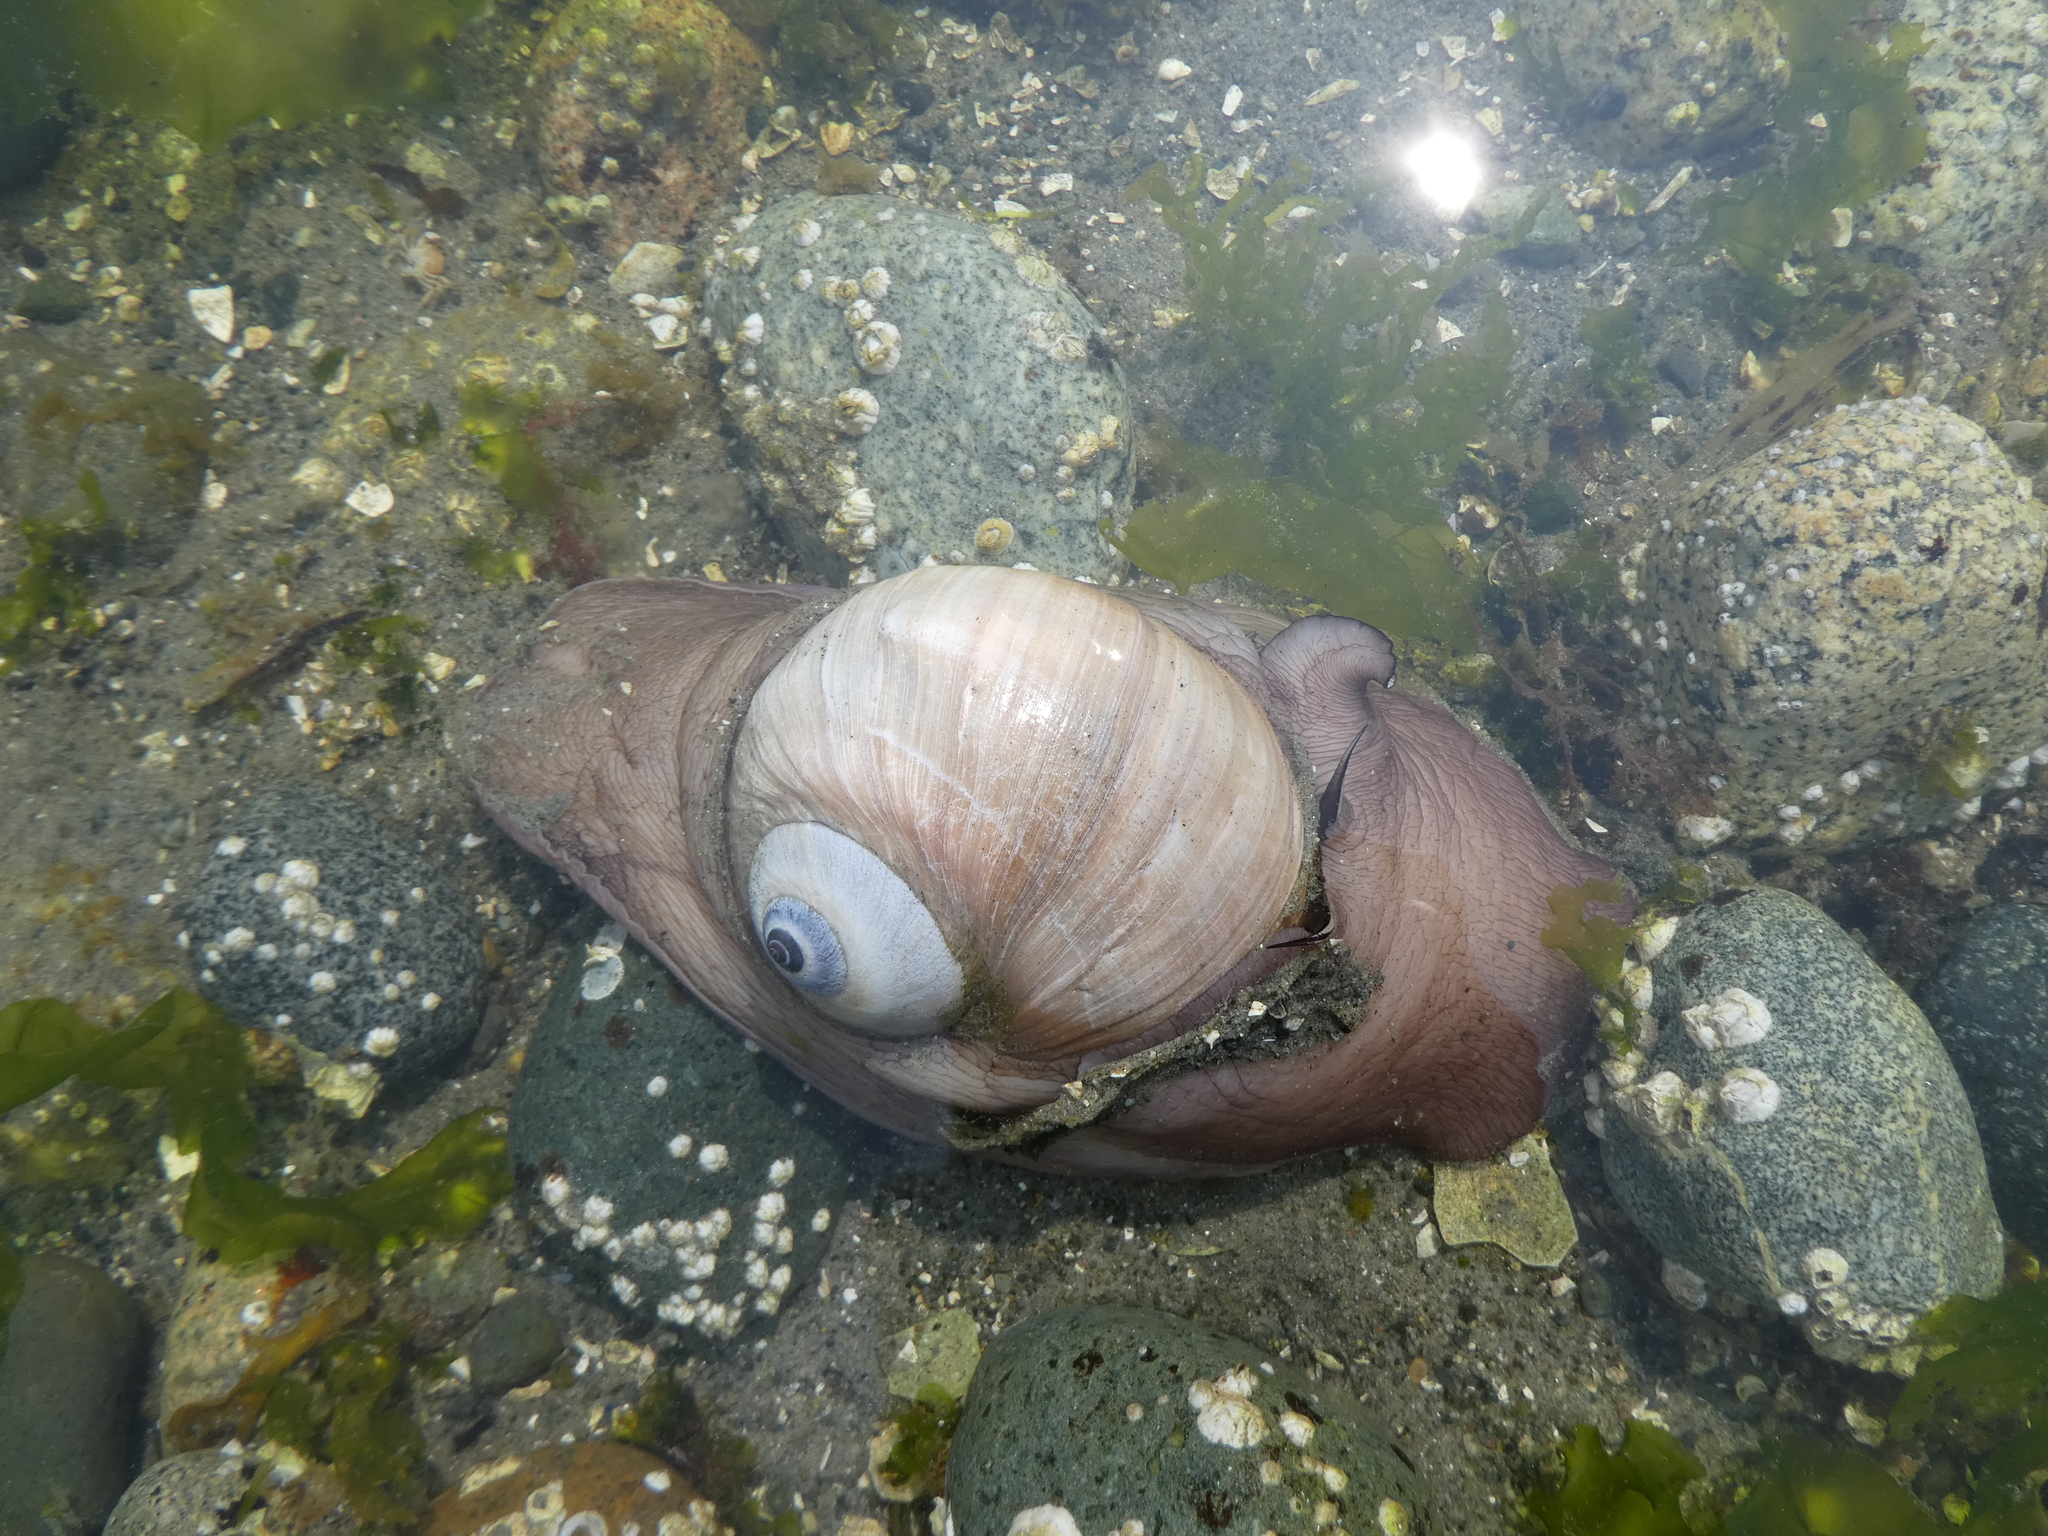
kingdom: Animalia
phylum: Mollusca
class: Gastropoda
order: Littorinimorpha
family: Naticidae
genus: Neverita
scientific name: Neverita lewisii
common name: Lewis' moonsnail
